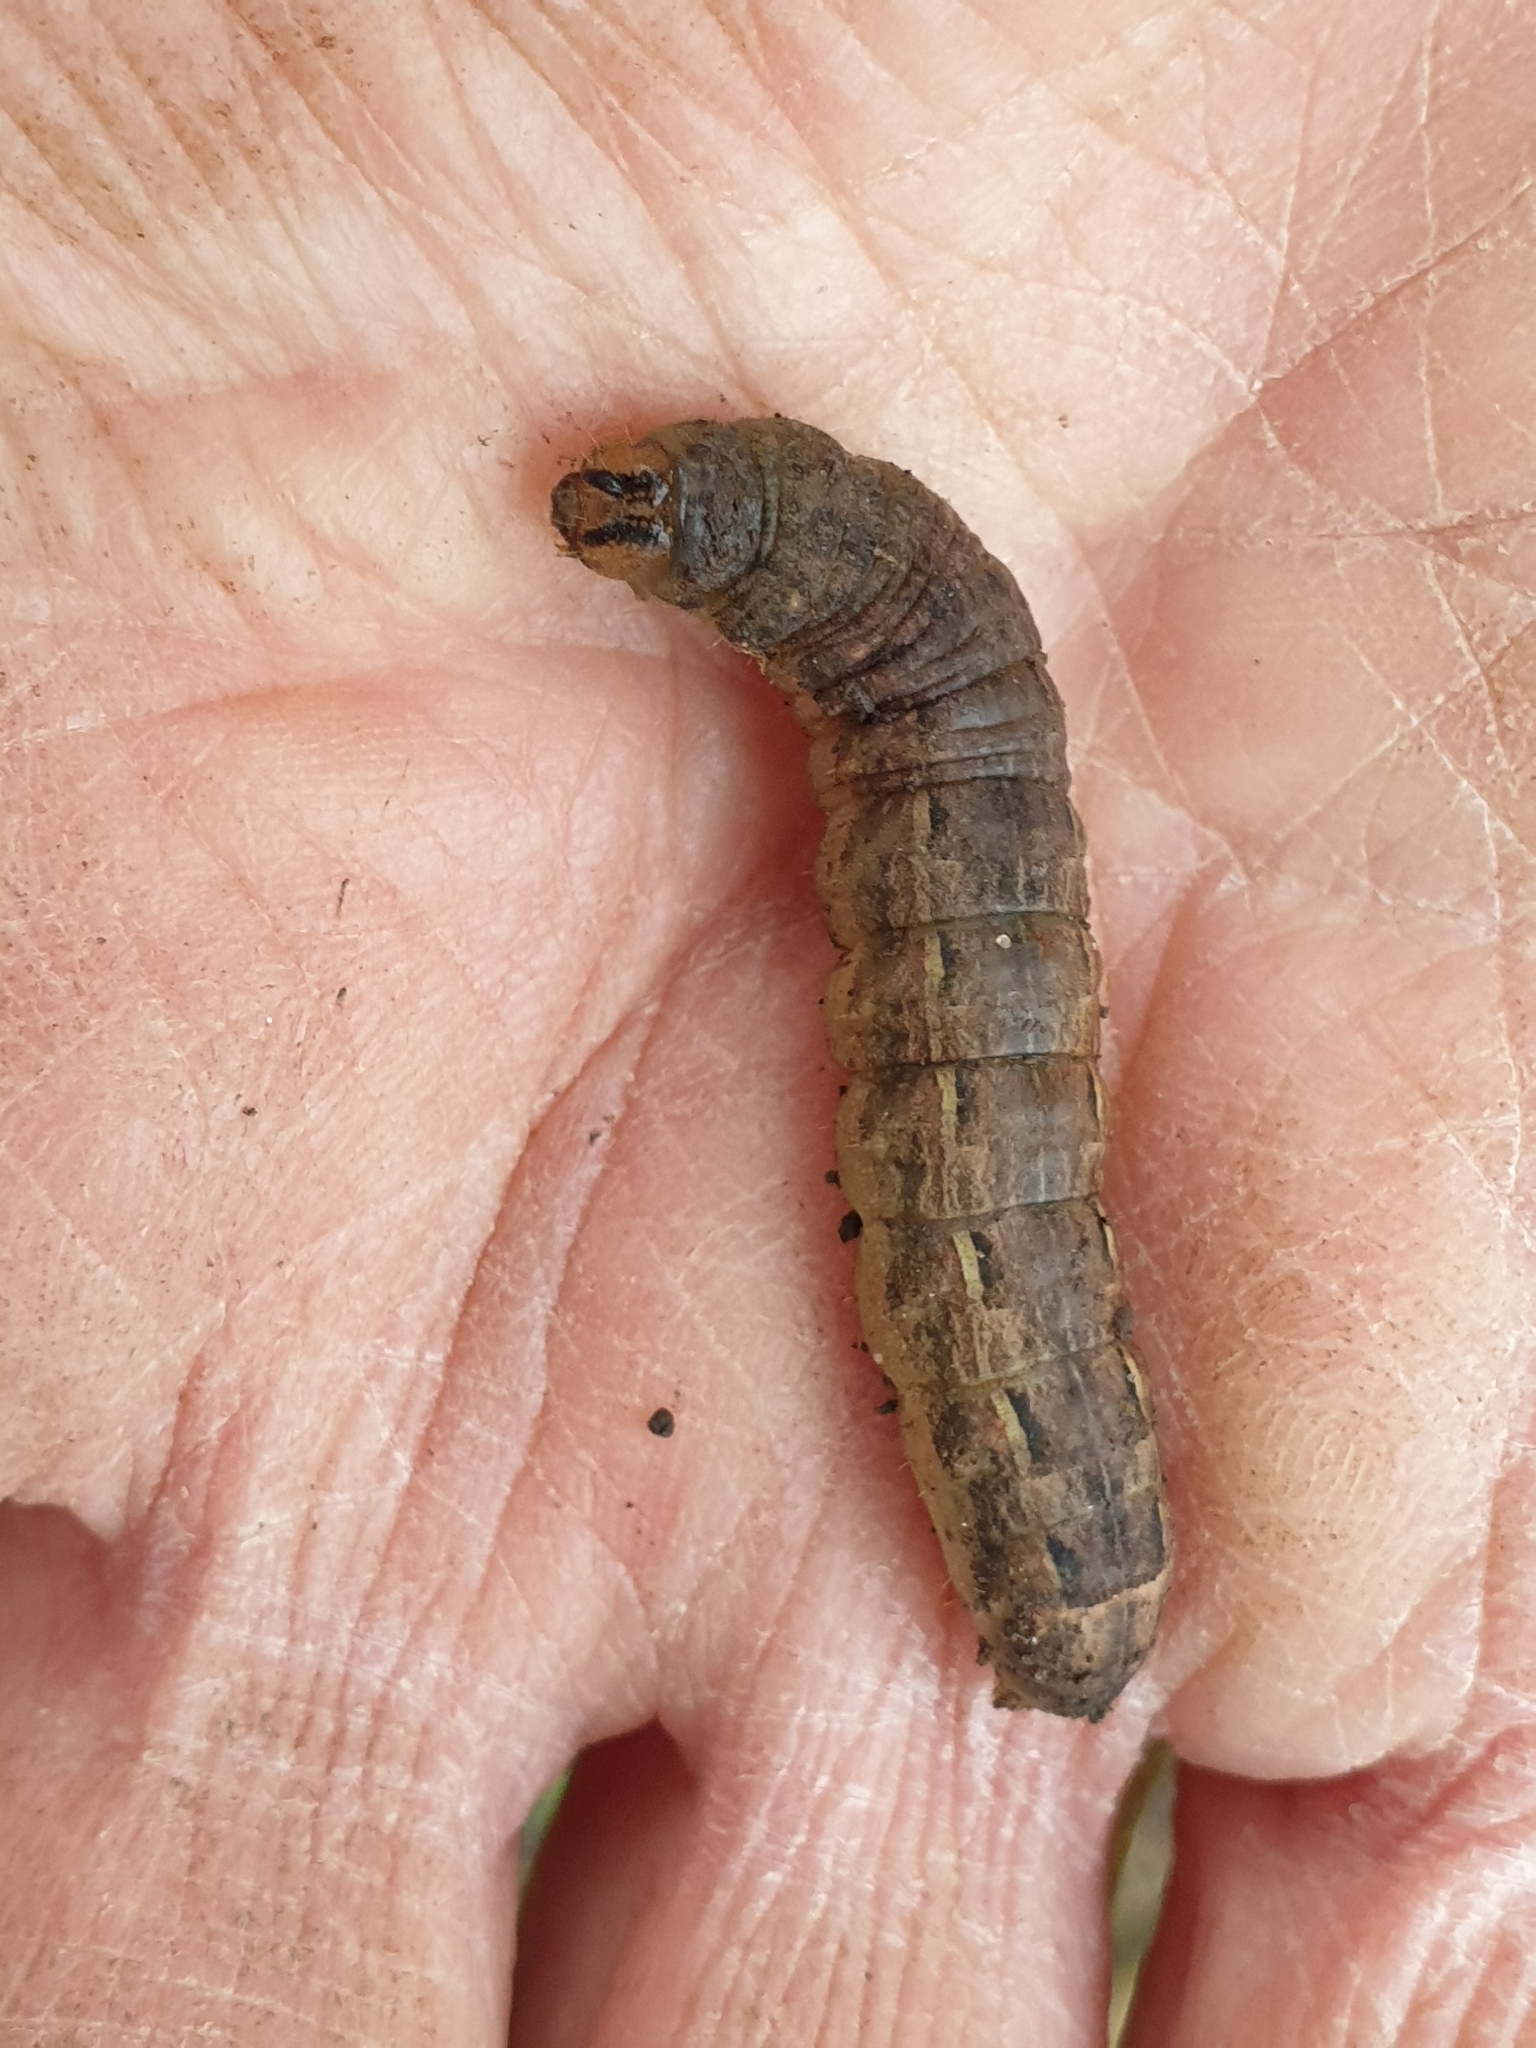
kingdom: Animalia
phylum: Arthropoda
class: Insecta
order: Lepidoptera
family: Noctuidae
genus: Noctua
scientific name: Noctua pronuba
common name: Large yellow underwing
